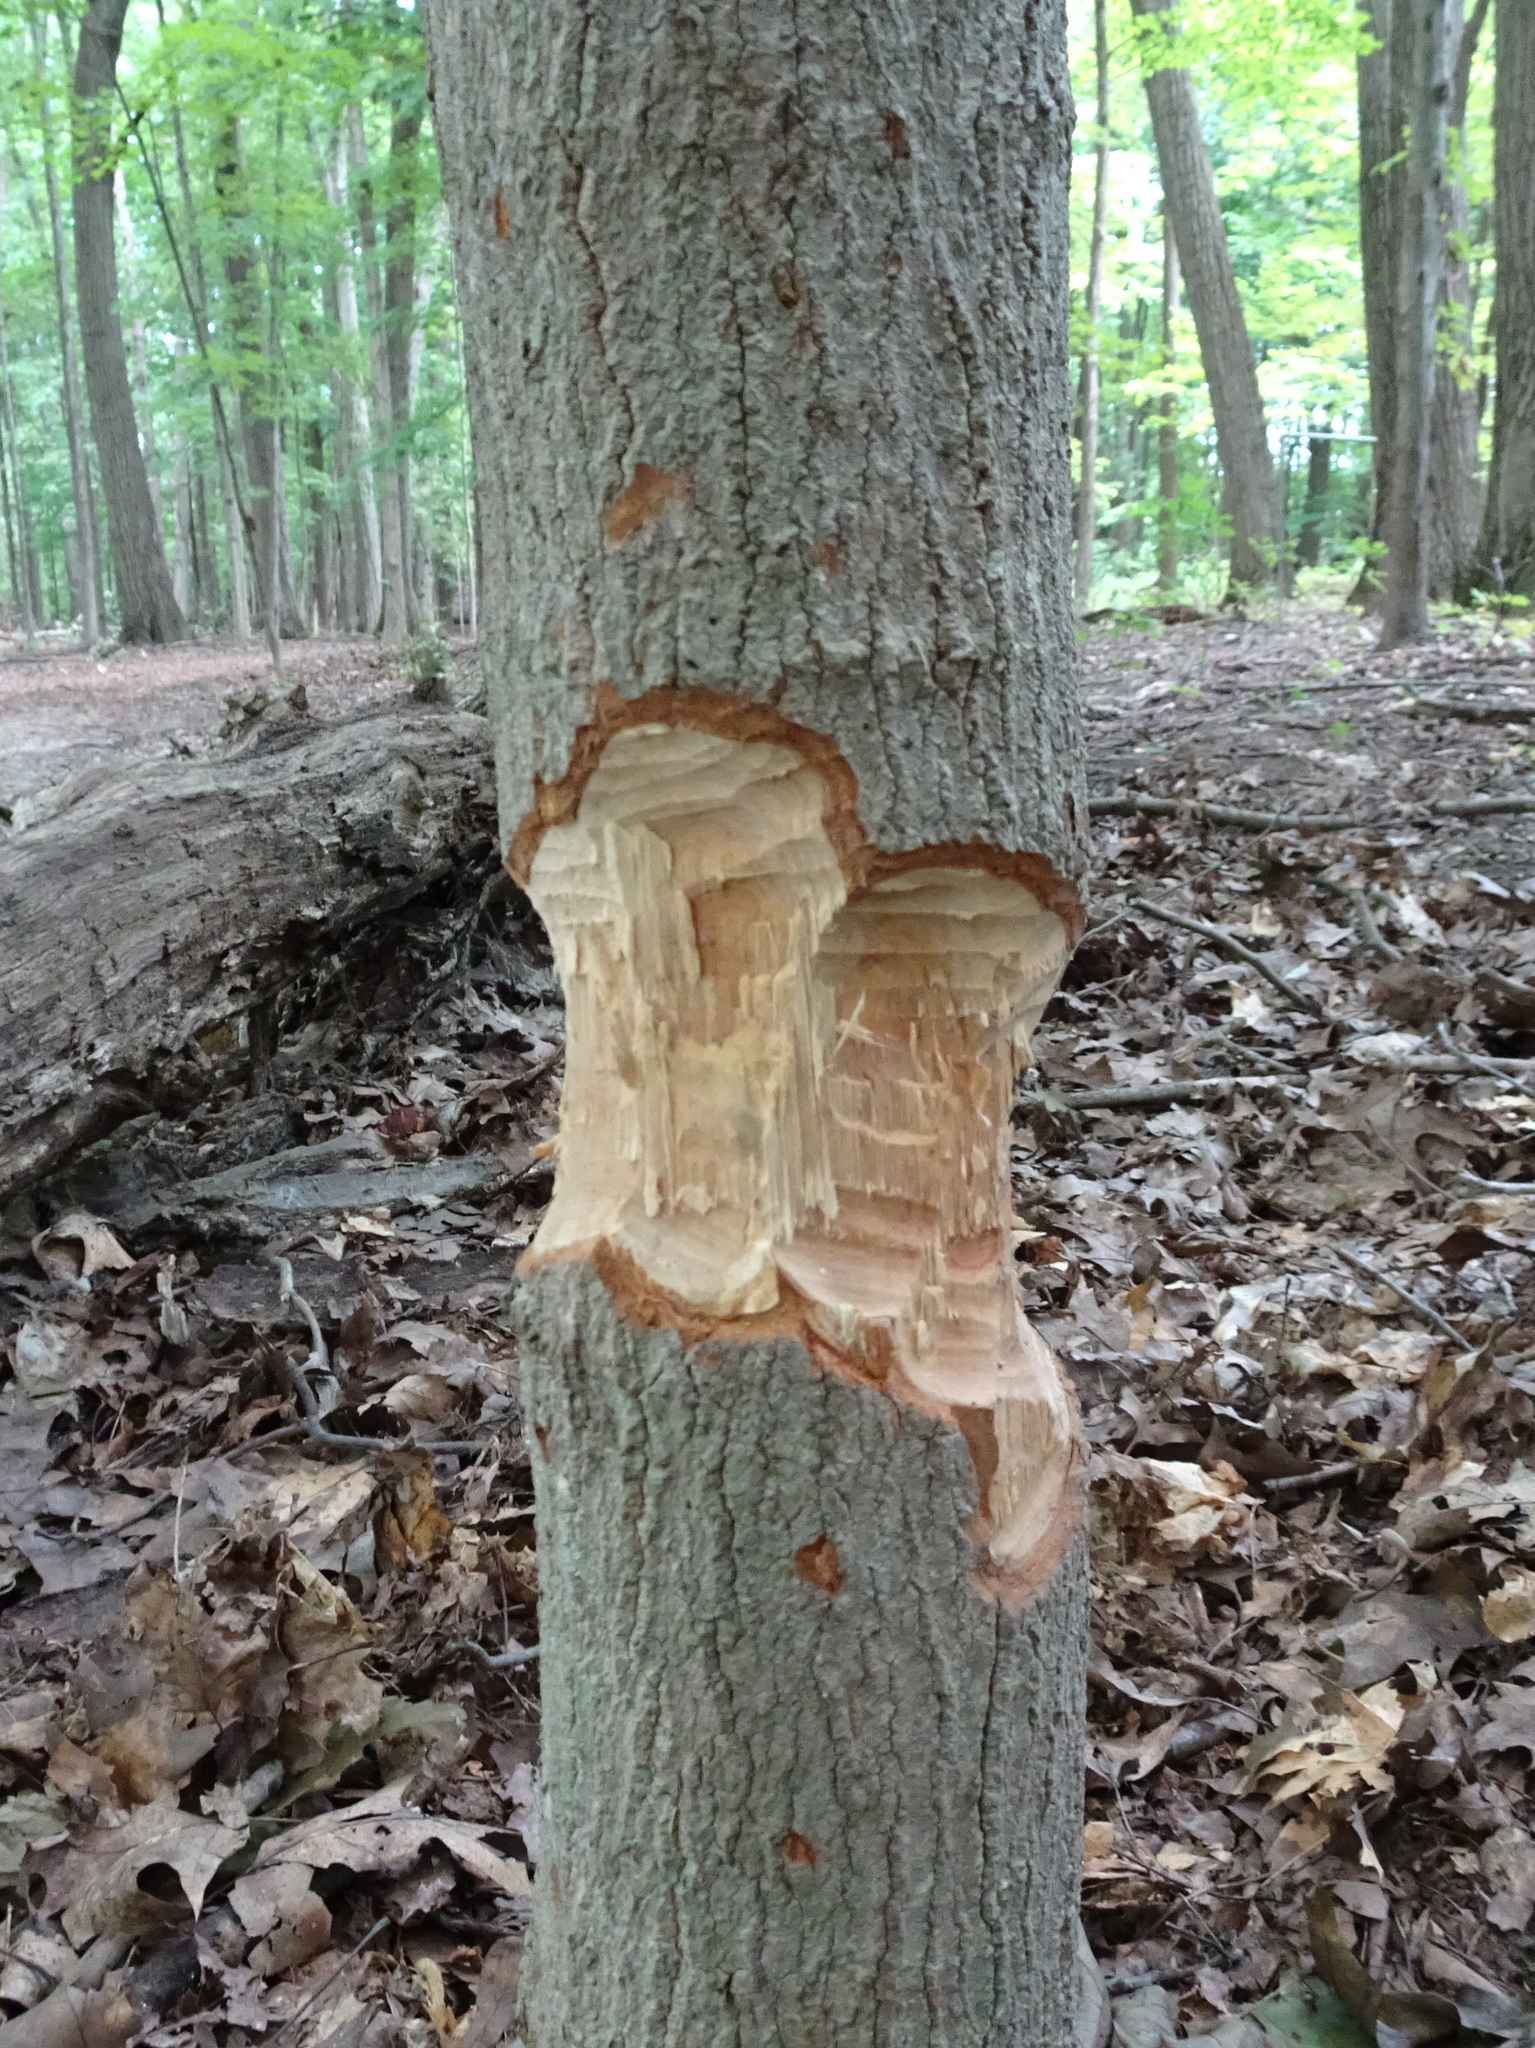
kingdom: Animalia
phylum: Chordata
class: Mammalia
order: Rodentia
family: Castoridae
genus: Castor
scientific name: Castor canadensis
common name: American beaver
